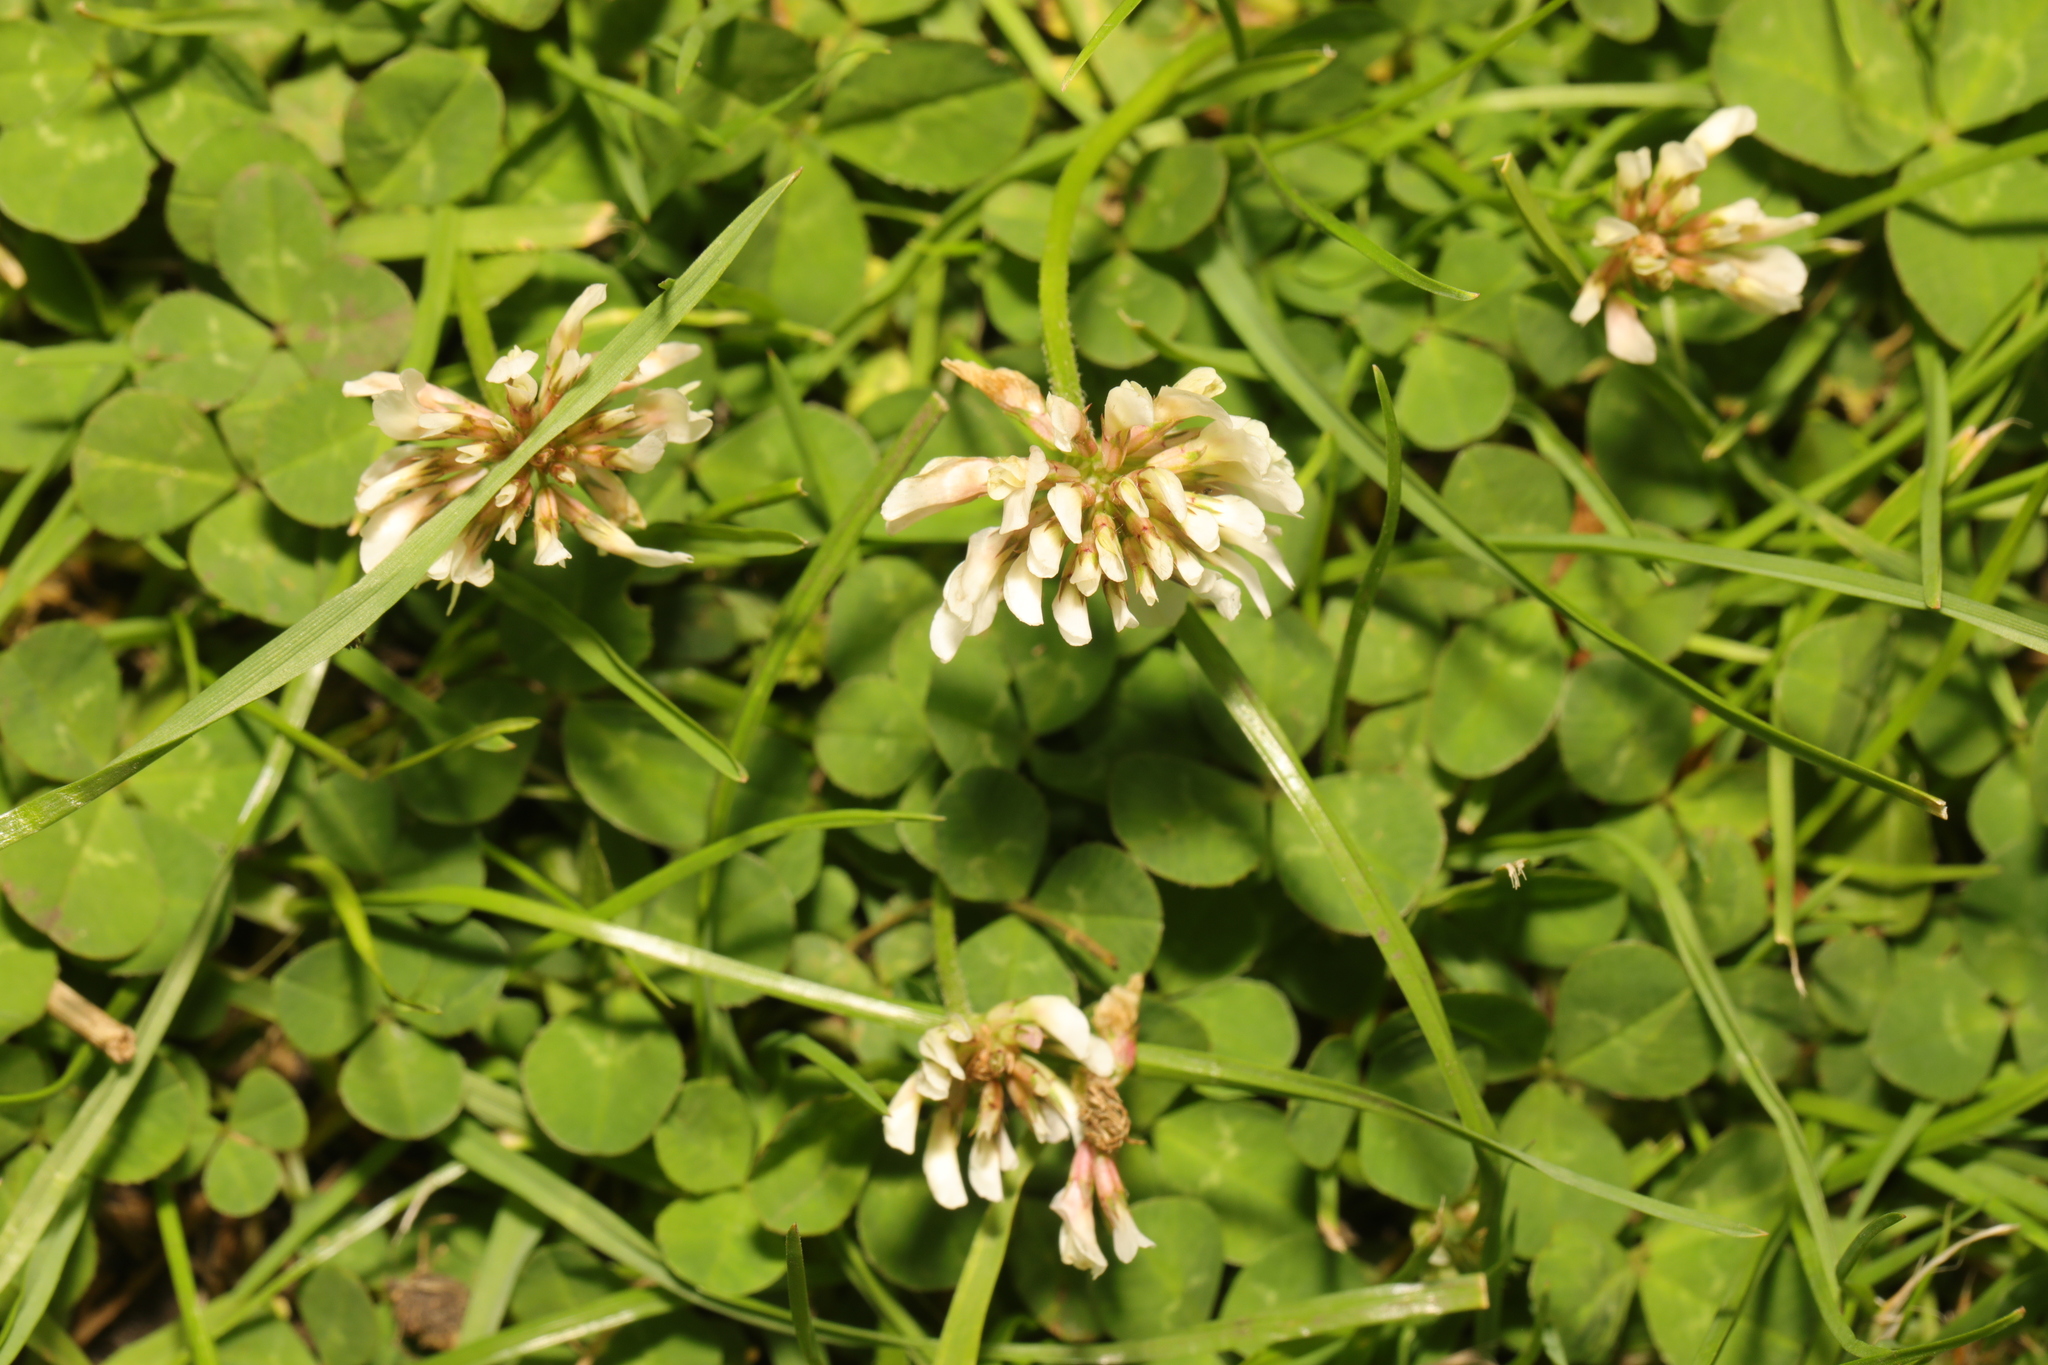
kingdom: Plantae
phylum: Tracheophyta
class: Magnoliopsida
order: Fabales
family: Fabaceae
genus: Trifolium
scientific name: Trifolium repens
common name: White clover
